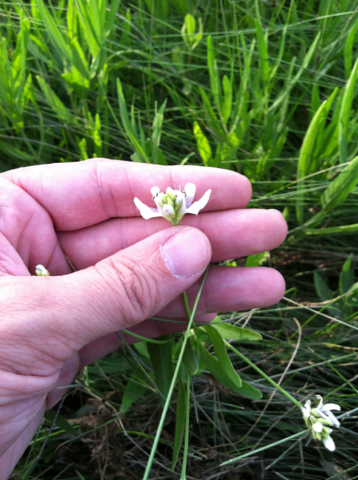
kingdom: Plantae
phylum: Tracheophyta
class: Magnoliopsida
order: Lamiales
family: Acanthaceae
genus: Dianthera
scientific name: Dianthera americana
